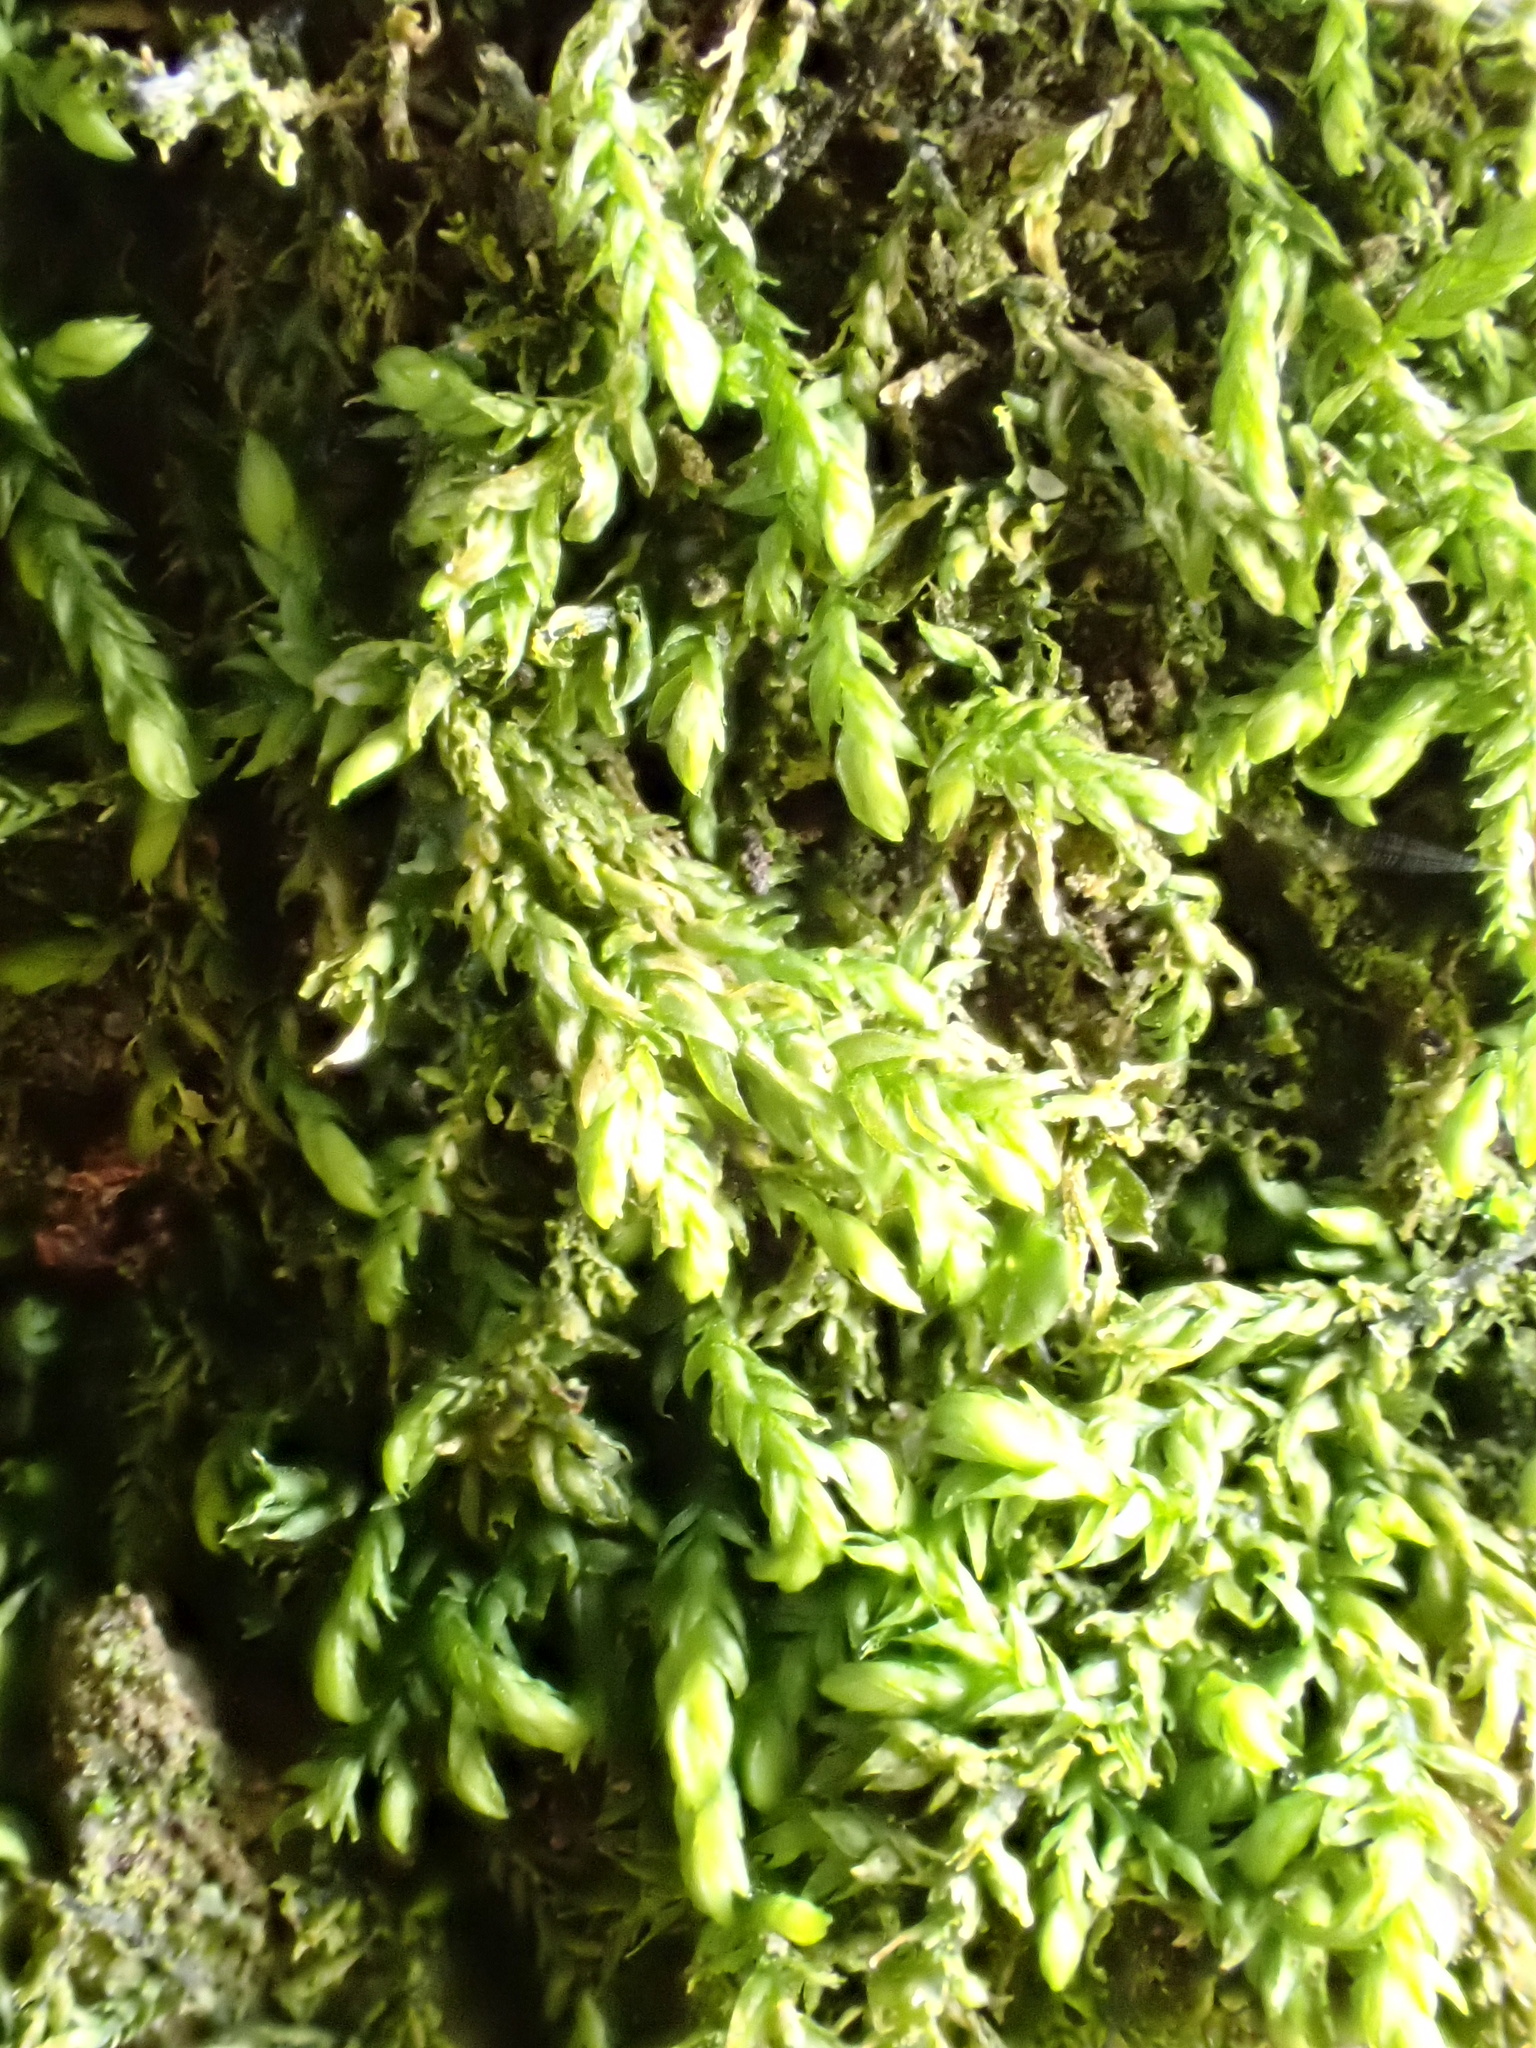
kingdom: Plantae
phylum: Bryophyta
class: Bryopsida
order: Hypnales
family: Leskeaceae
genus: Leskea
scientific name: Leskea polycarpa
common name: Many-fruited leske's moss
